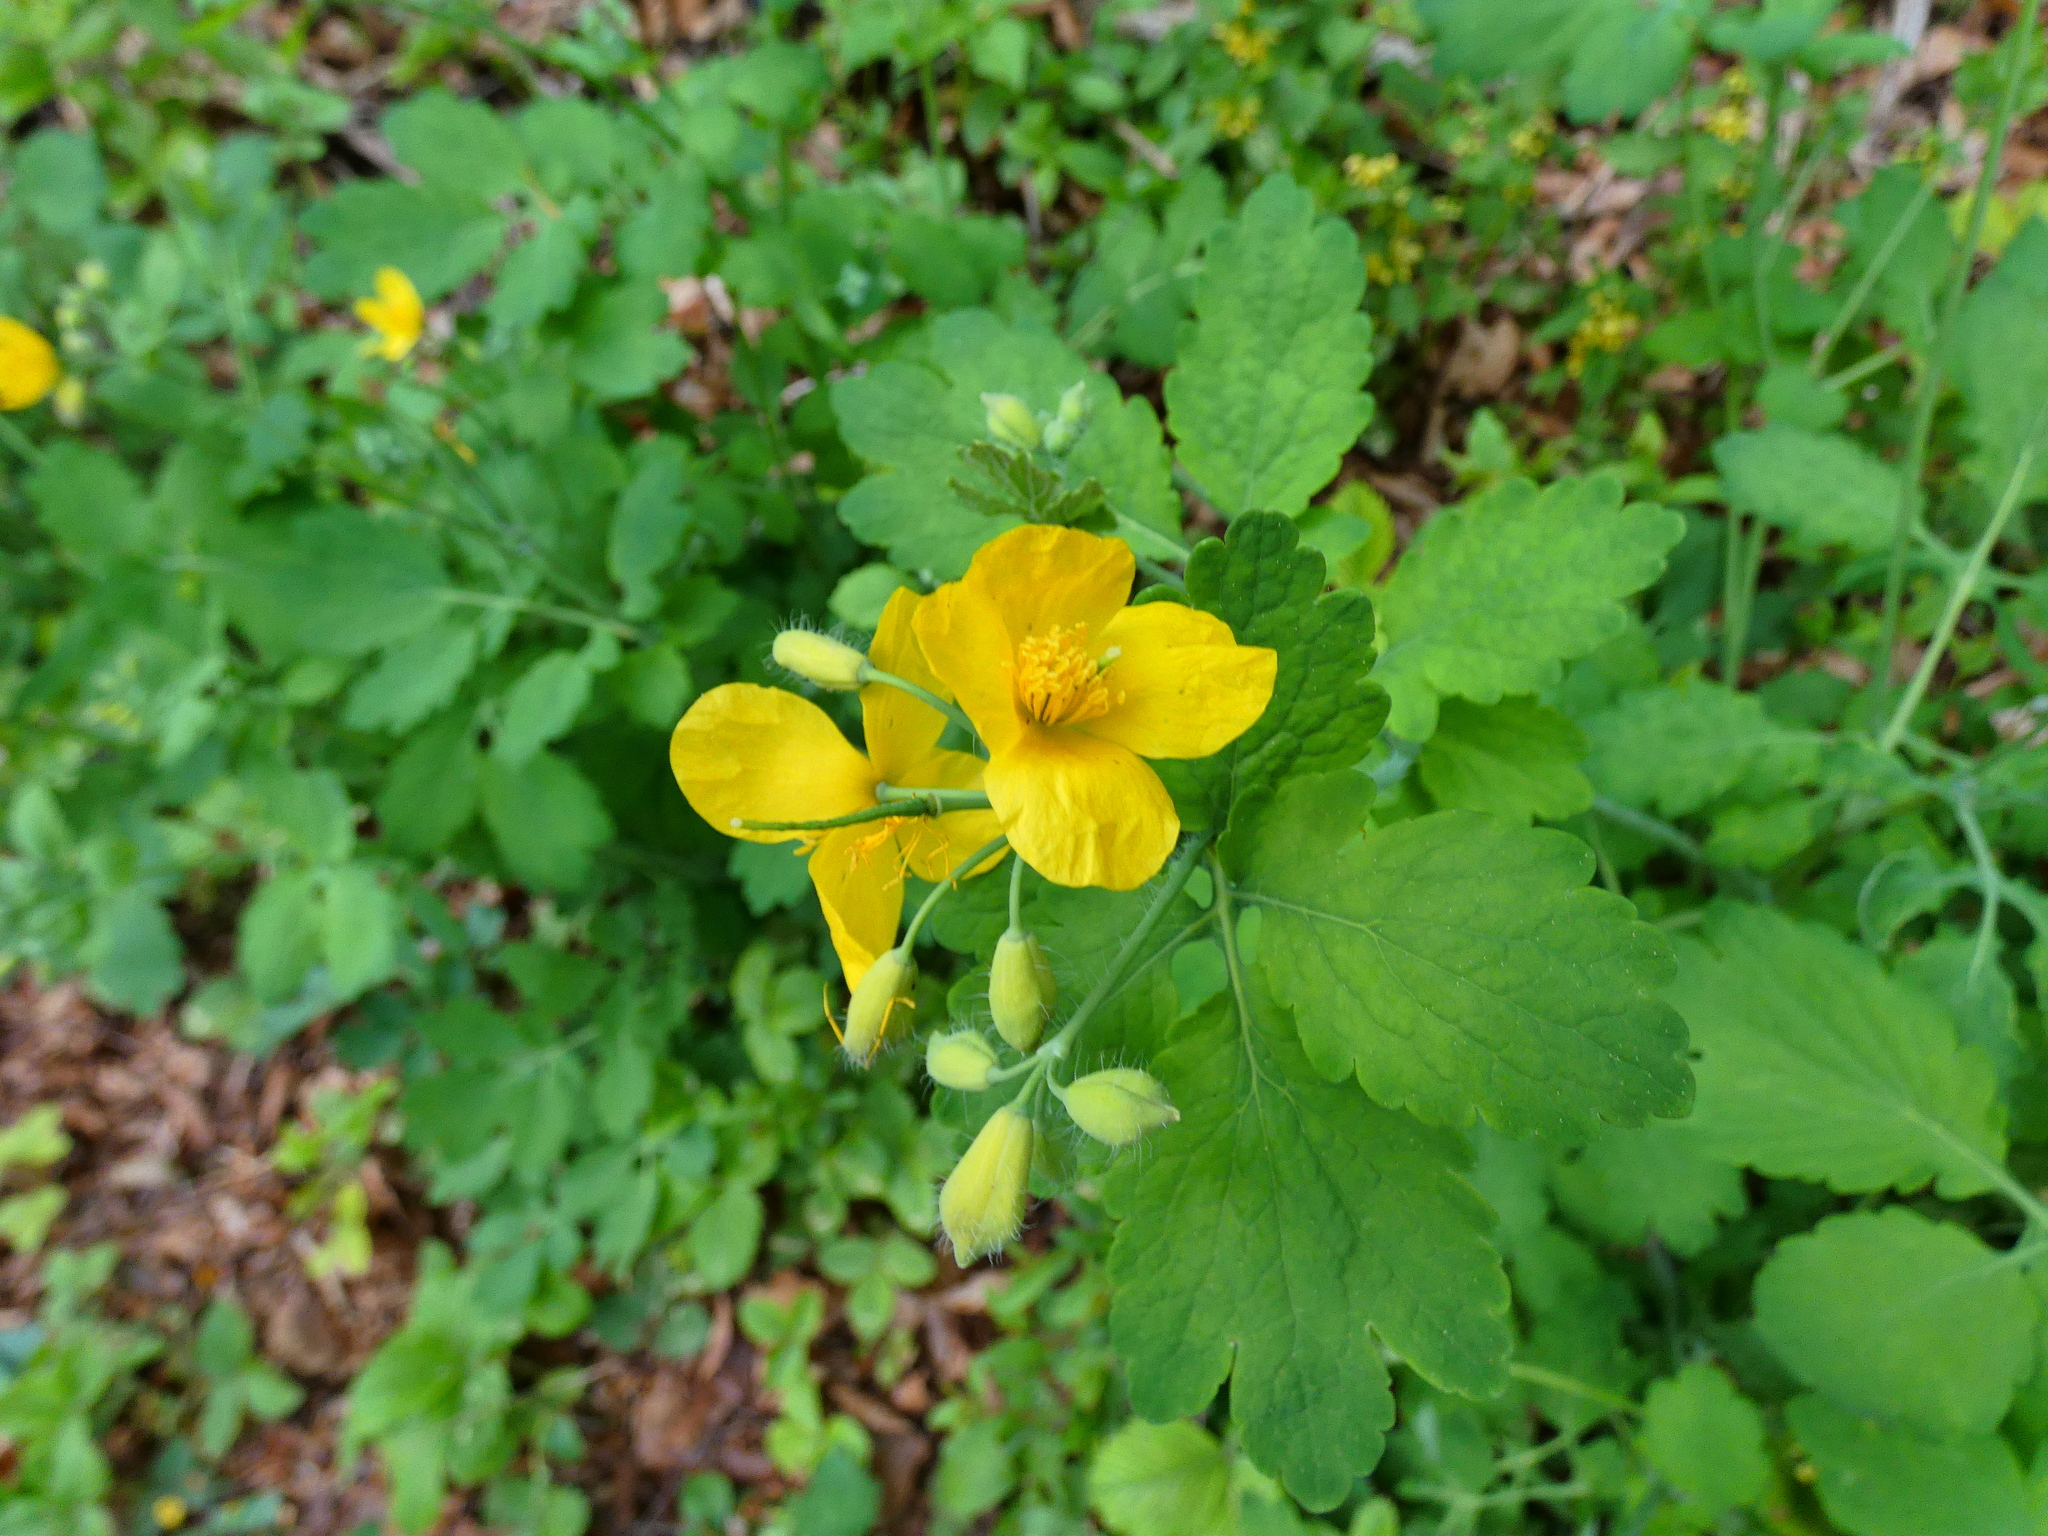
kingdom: Plantae
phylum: Tracheophyta
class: Magnoliopsida
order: Ranunculales
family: Papaveraceae
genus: Chelidonium
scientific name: Chelidonium majus
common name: Greater celandine
